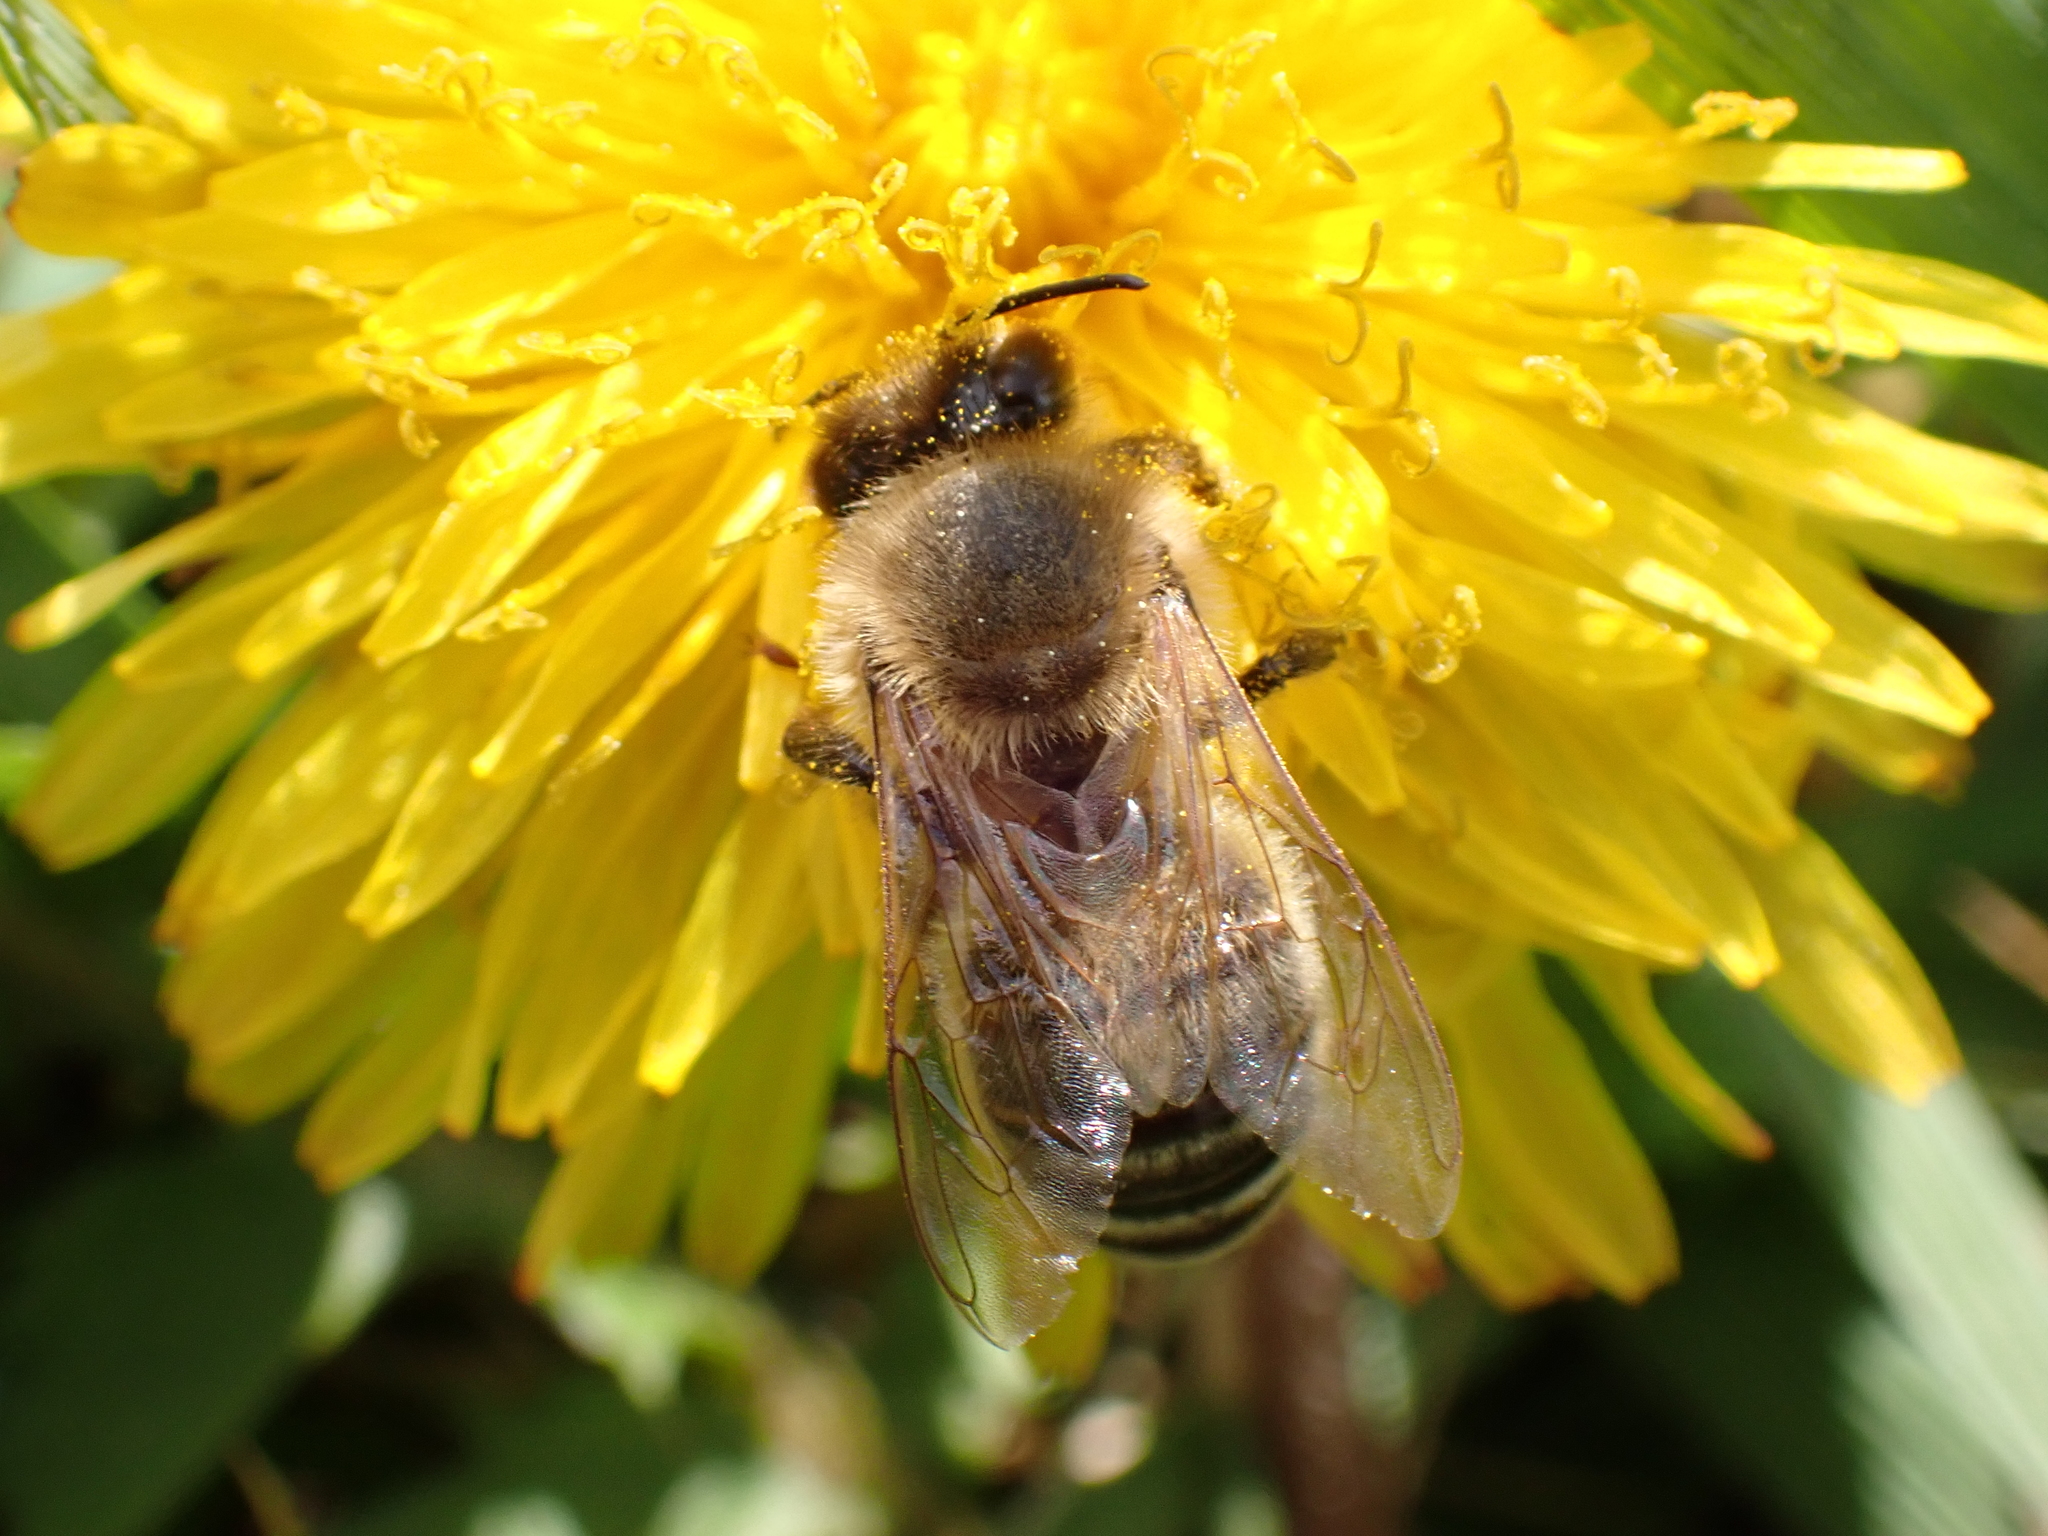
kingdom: Animalia
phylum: Arthropoda
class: Insecta
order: Hymenoptera
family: Apidae
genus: Apis
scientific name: Apis mellifera
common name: Honey bee
